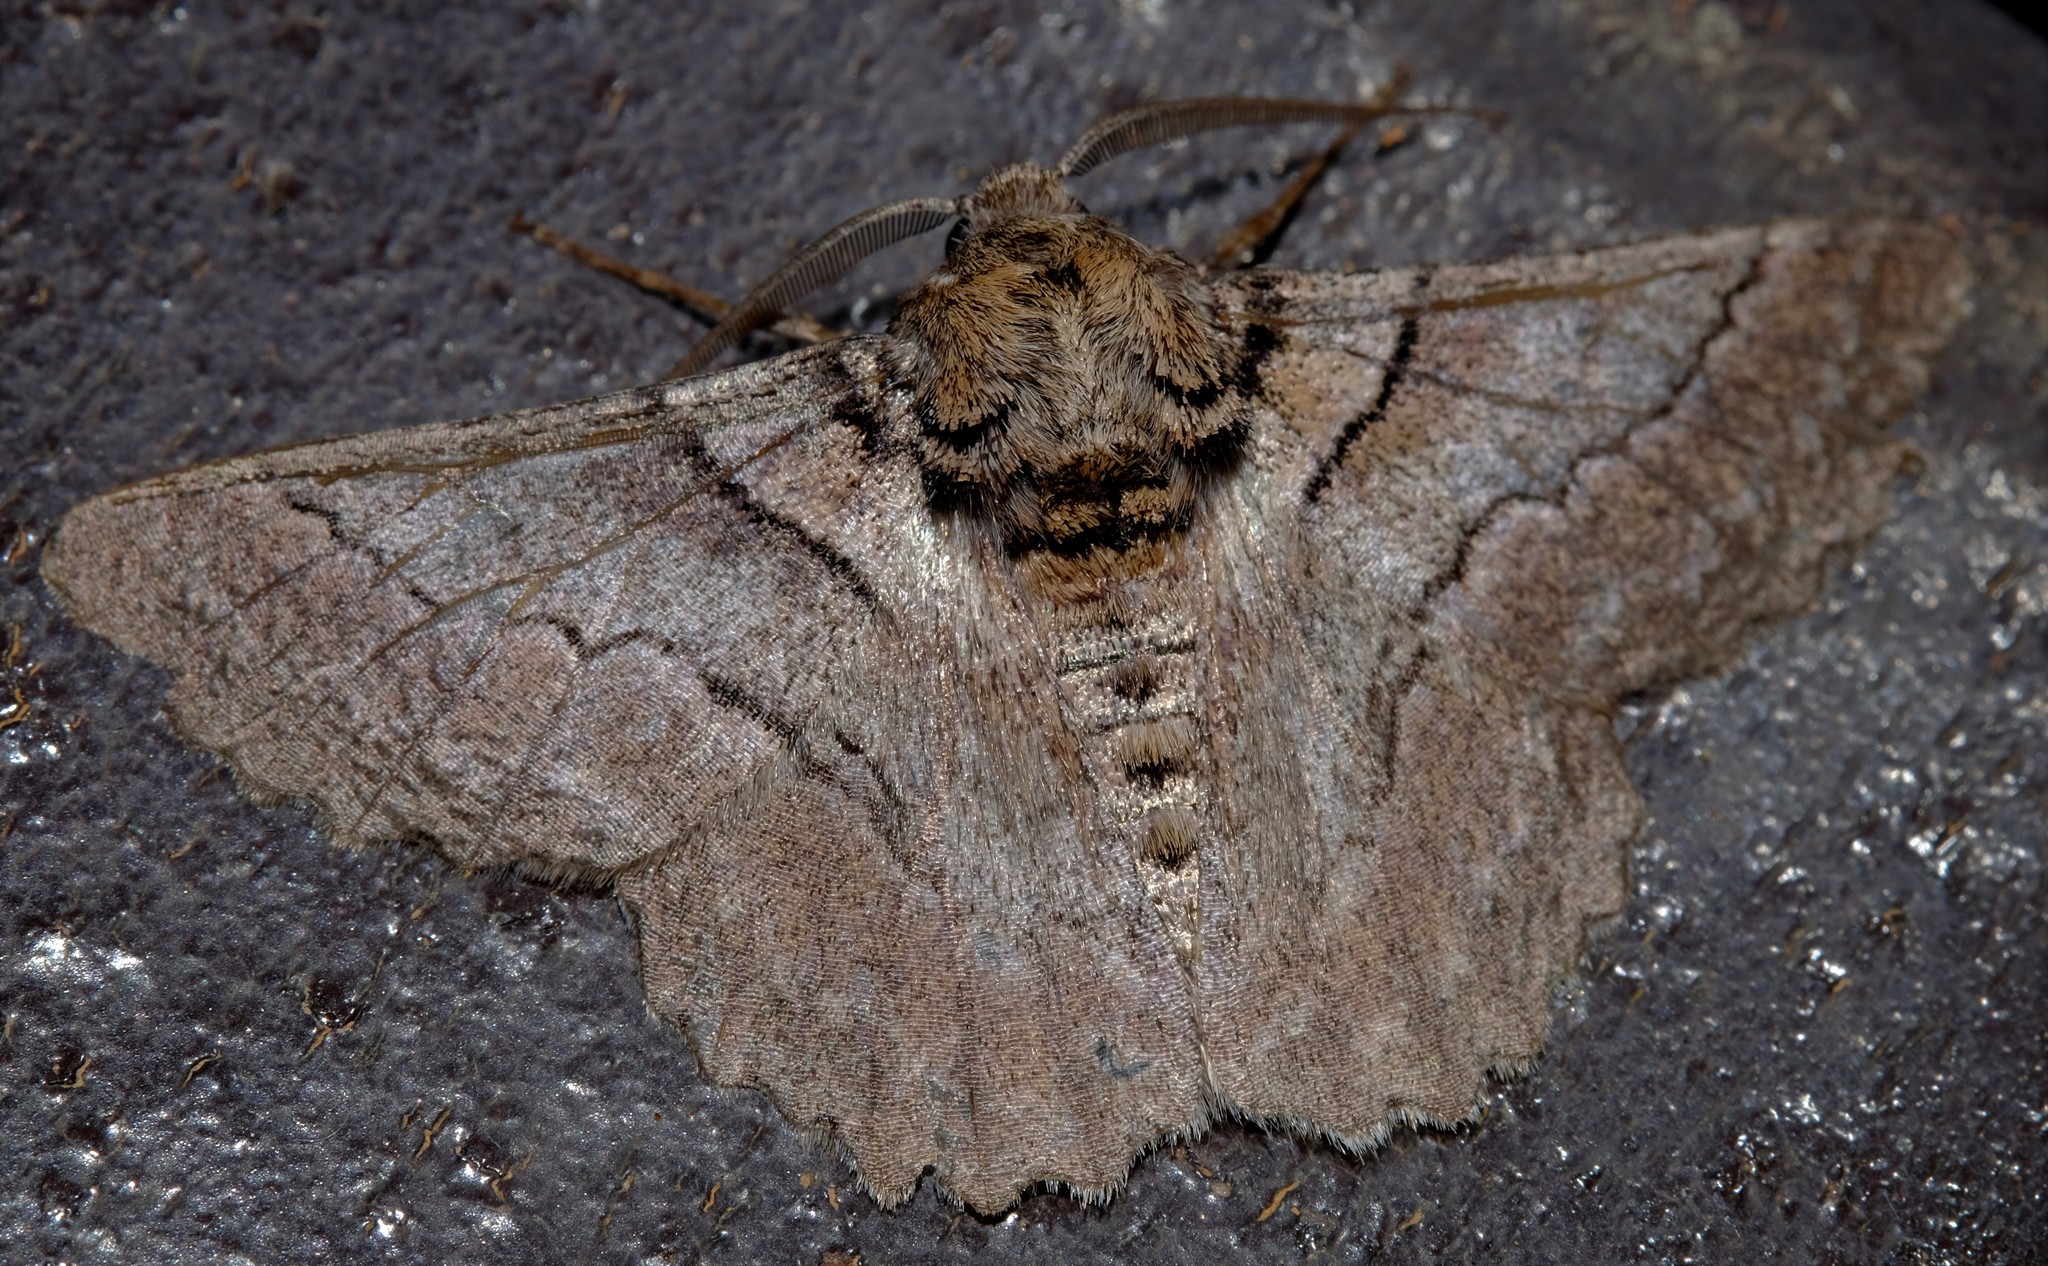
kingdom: Animalia
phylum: Arthropoda
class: Insecta
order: Lepidoptera
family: Geometridae
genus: Hypobapta
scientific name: Hypobapta tachyhalotaria
